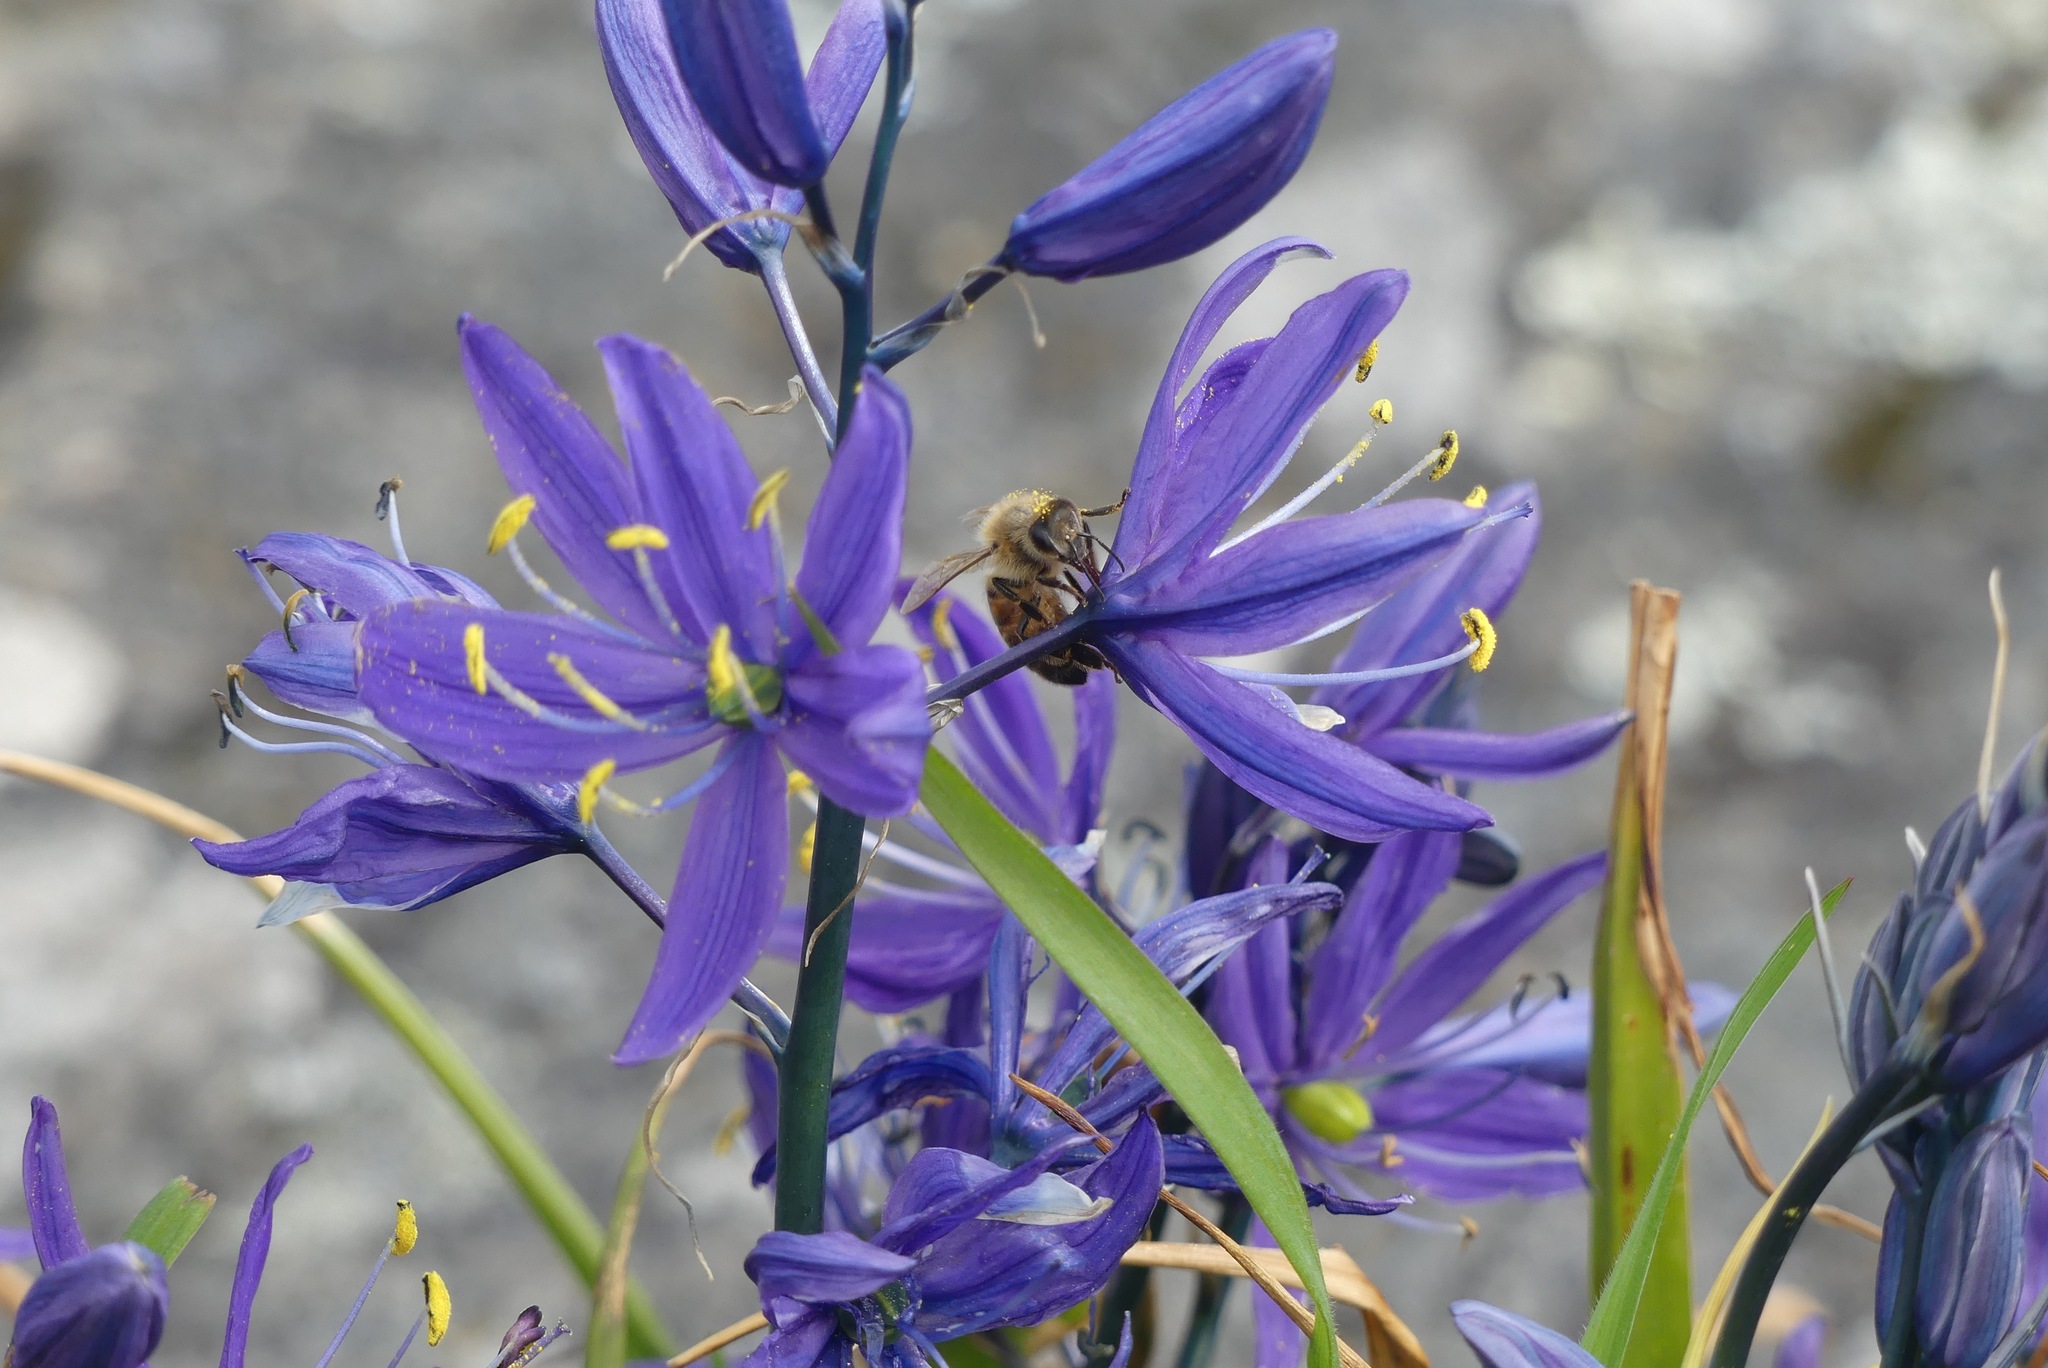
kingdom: Animalia
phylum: Arthropoda
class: Insecta
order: Hymenoptera
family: Apidae
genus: Apis
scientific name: Apis mellifera
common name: Honey bee
